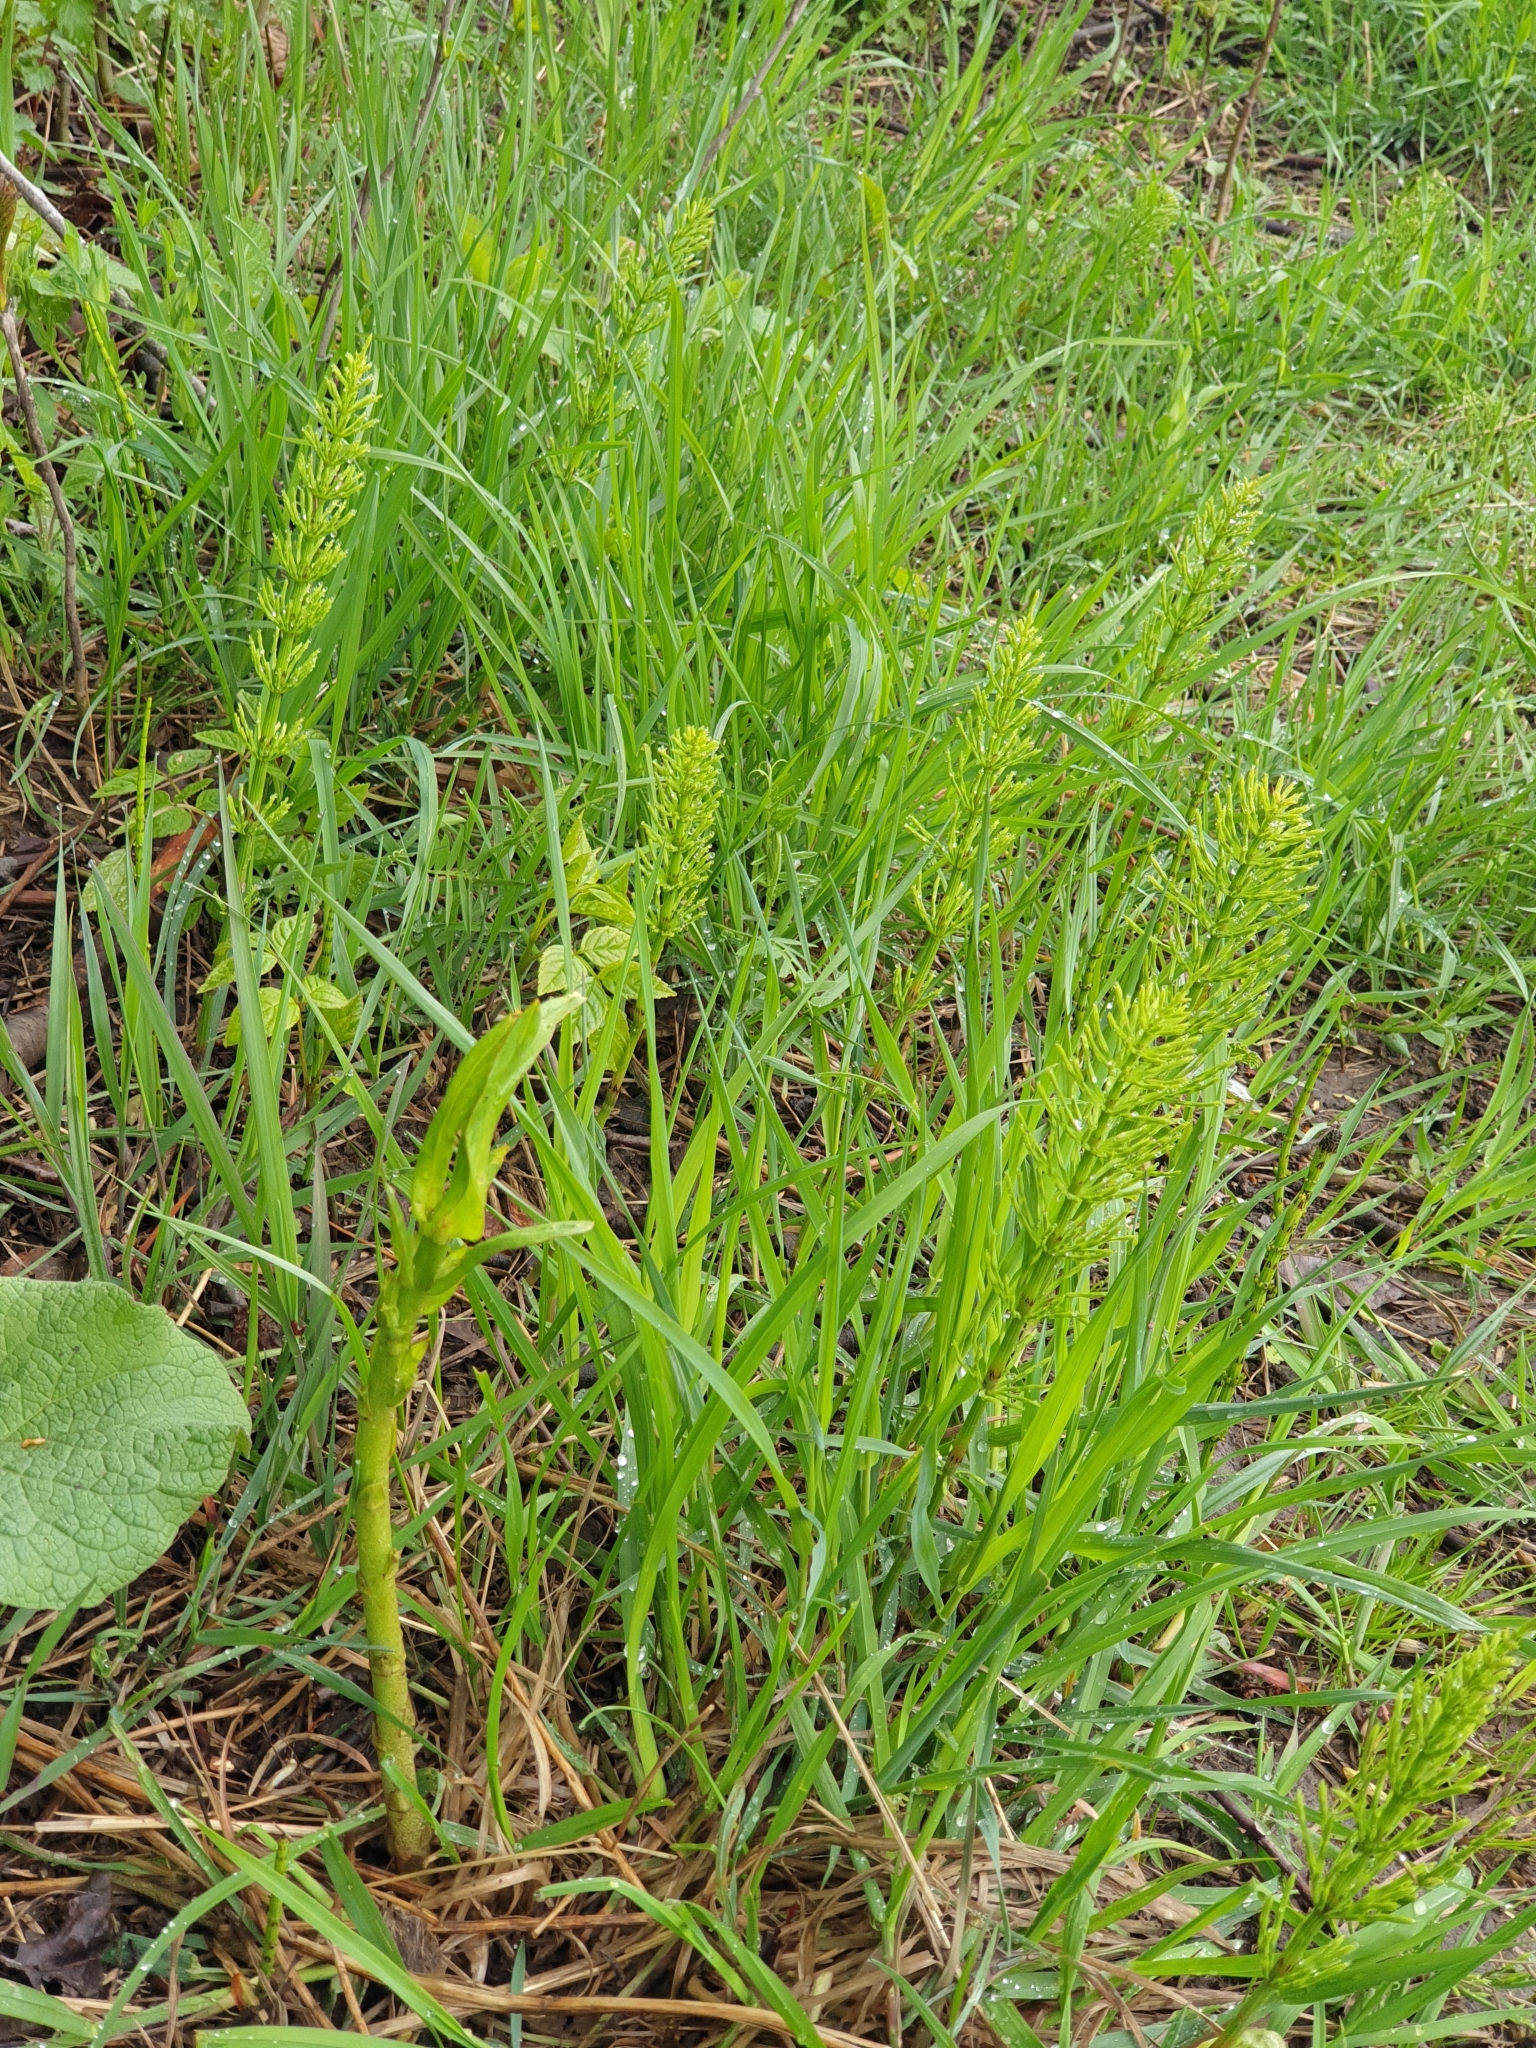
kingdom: Plantae
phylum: Tracheophyta
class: Polypodiopsida
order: Equisetales
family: Equisetaceae
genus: Equisetum
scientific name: Equisetum arvense
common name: Field horsetail
